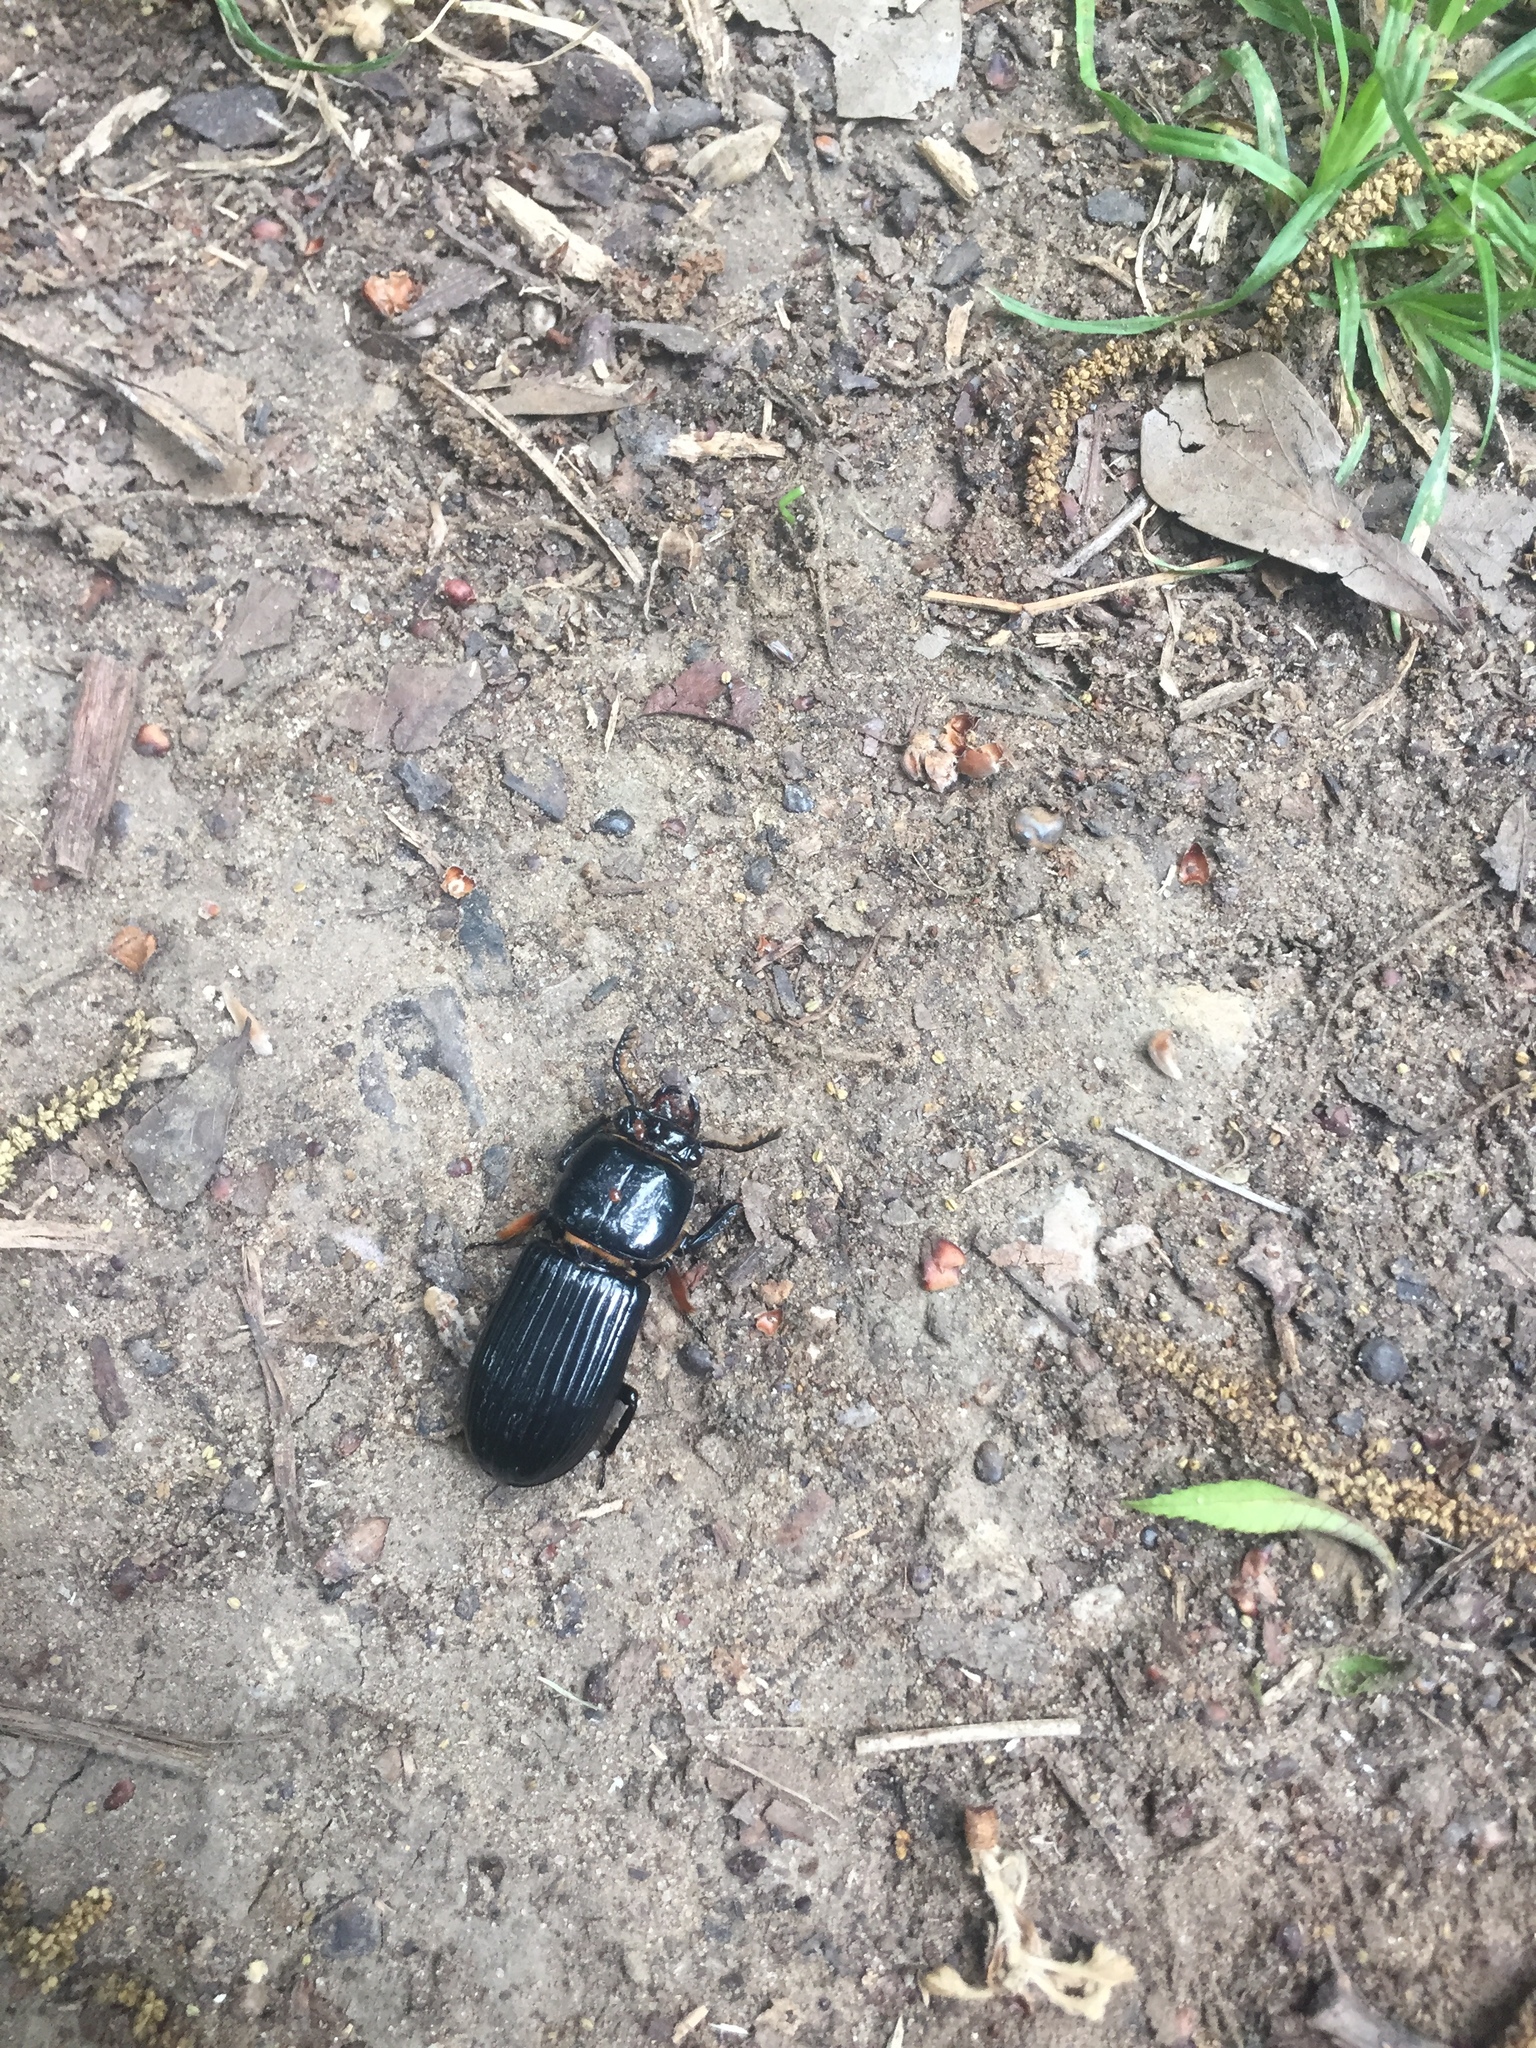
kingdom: Animalia
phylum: Arthropoda
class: Insecta
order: Coleoptera
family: Passalidae
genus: Odontotaenius
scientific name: Odontotaenius disjunctus
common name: Patent leather beetle
